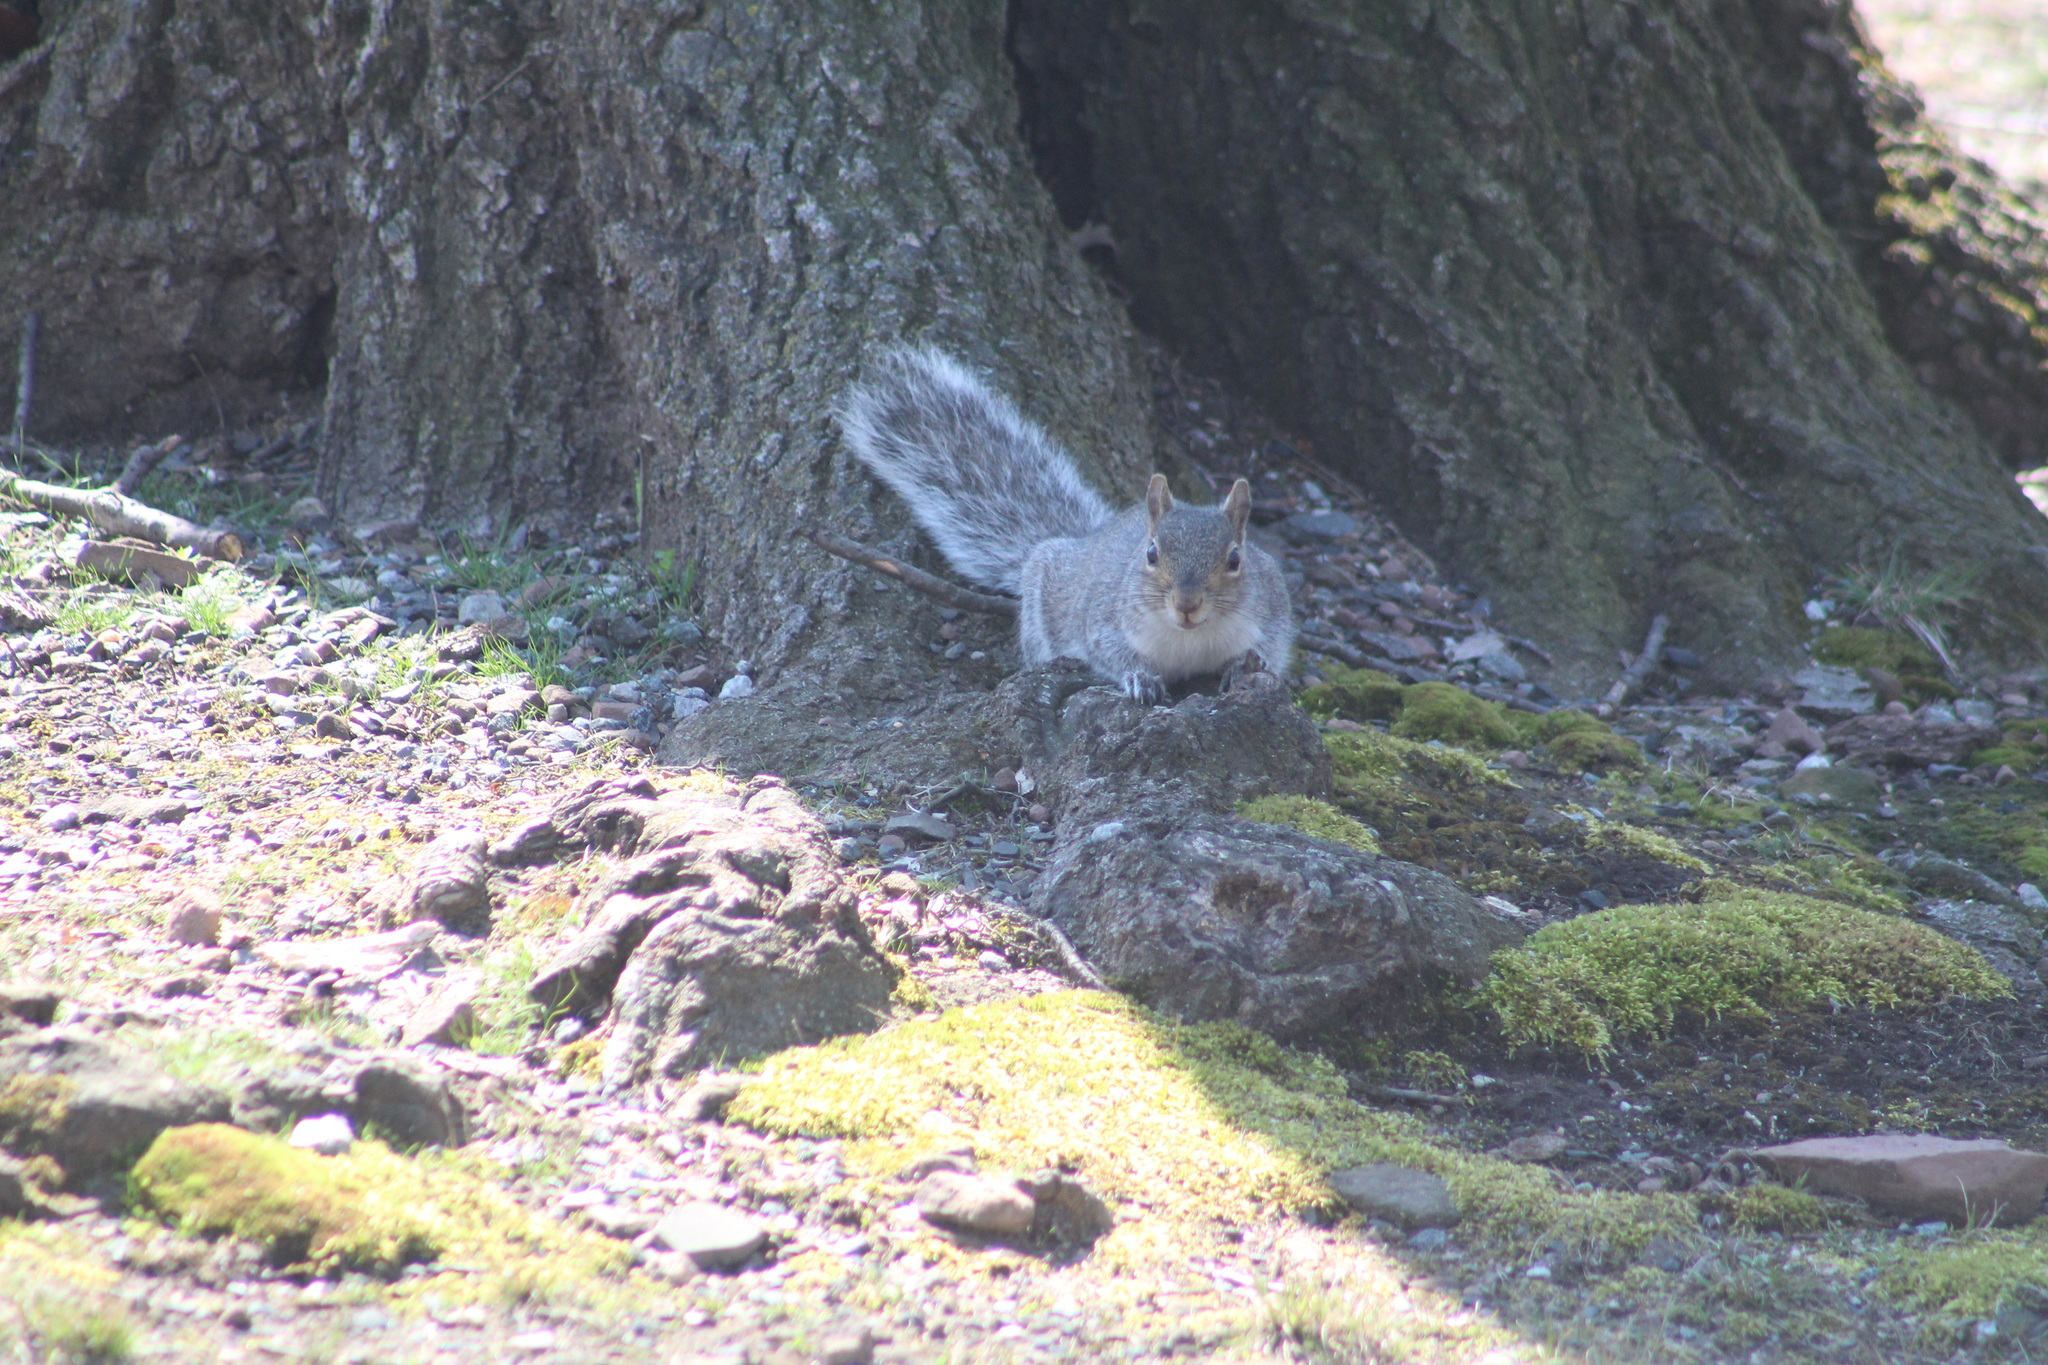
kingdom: Animalia
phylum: Chordata
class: Mammalia
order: Rodentia
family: Sciuridae
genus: Sciurus
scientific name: Sciurus carolinensis
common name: Eastern gray squirrel
